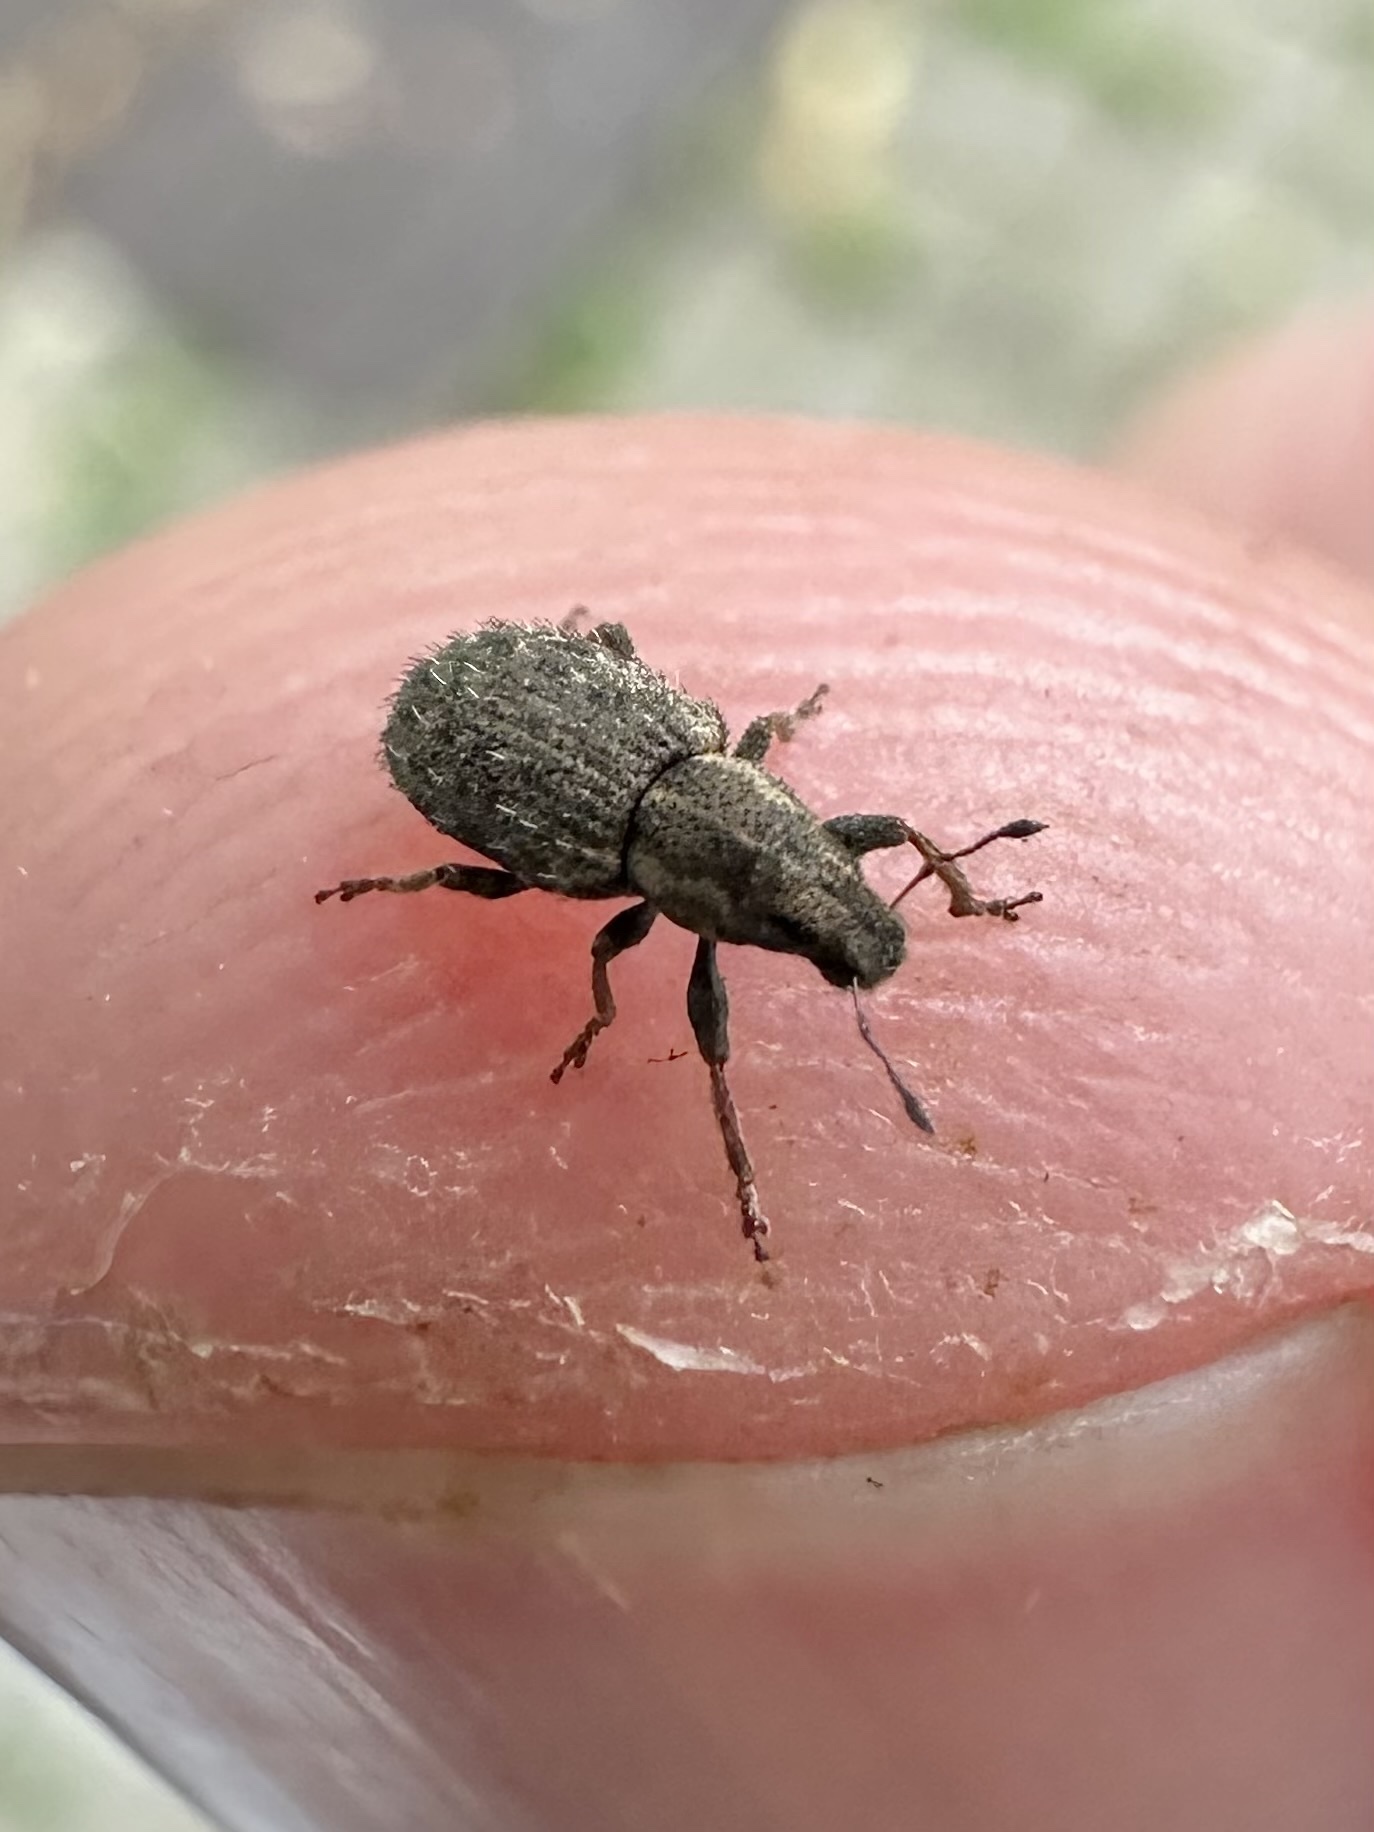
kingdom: Animalia
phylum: Arthropoda
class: Insecta
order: Coleoptera
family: Curculionidae
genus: Sitona
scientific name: Sitona hispidulus
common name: Clover weevil
